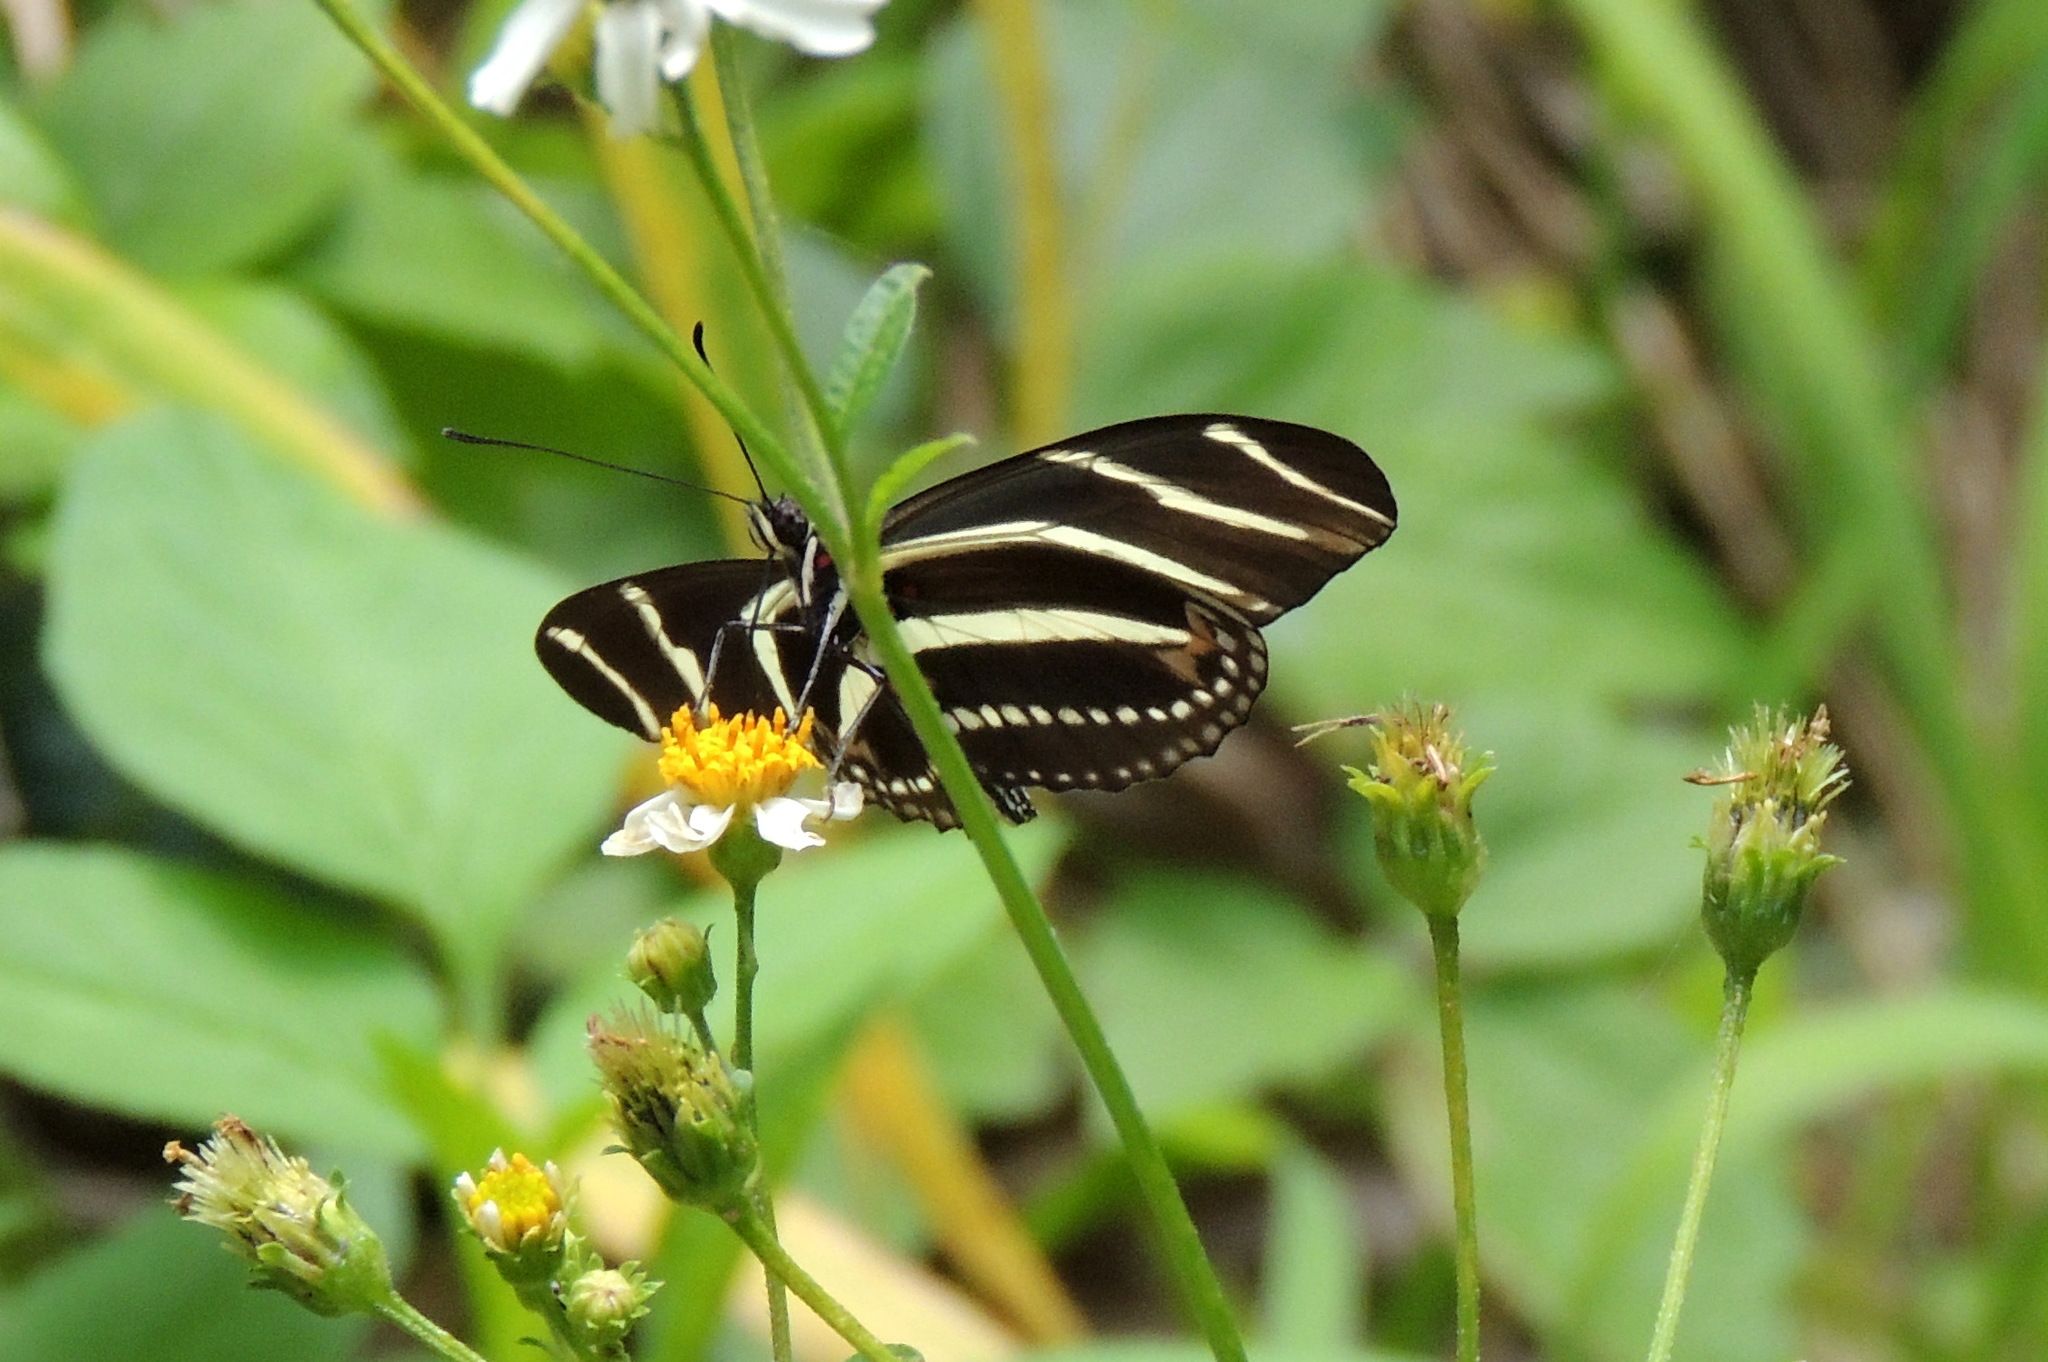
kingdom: Animalia
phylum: Arthropoda
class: Insecta
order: Lepidoptera
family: Nymphalidae
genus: Heliconius
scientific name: Heliconius charithonia
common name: Zebra long wing
